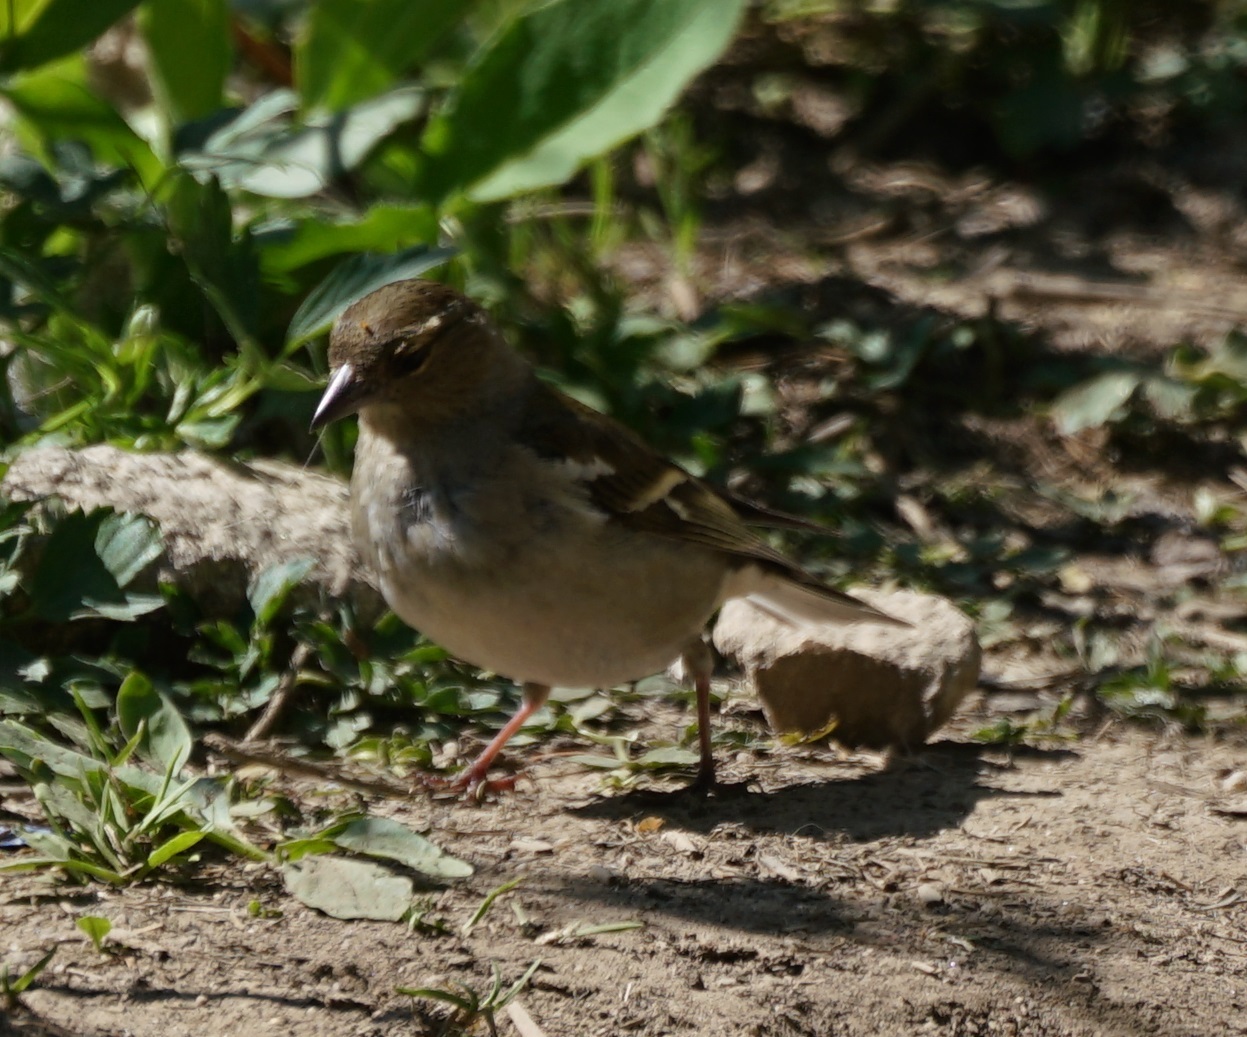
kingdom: Animalia
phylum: Chordata
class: Aves
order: Passeriformes
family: Fringillidae
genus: Fringilla
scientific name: Fringilla coelebs
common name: Common chaffinch
